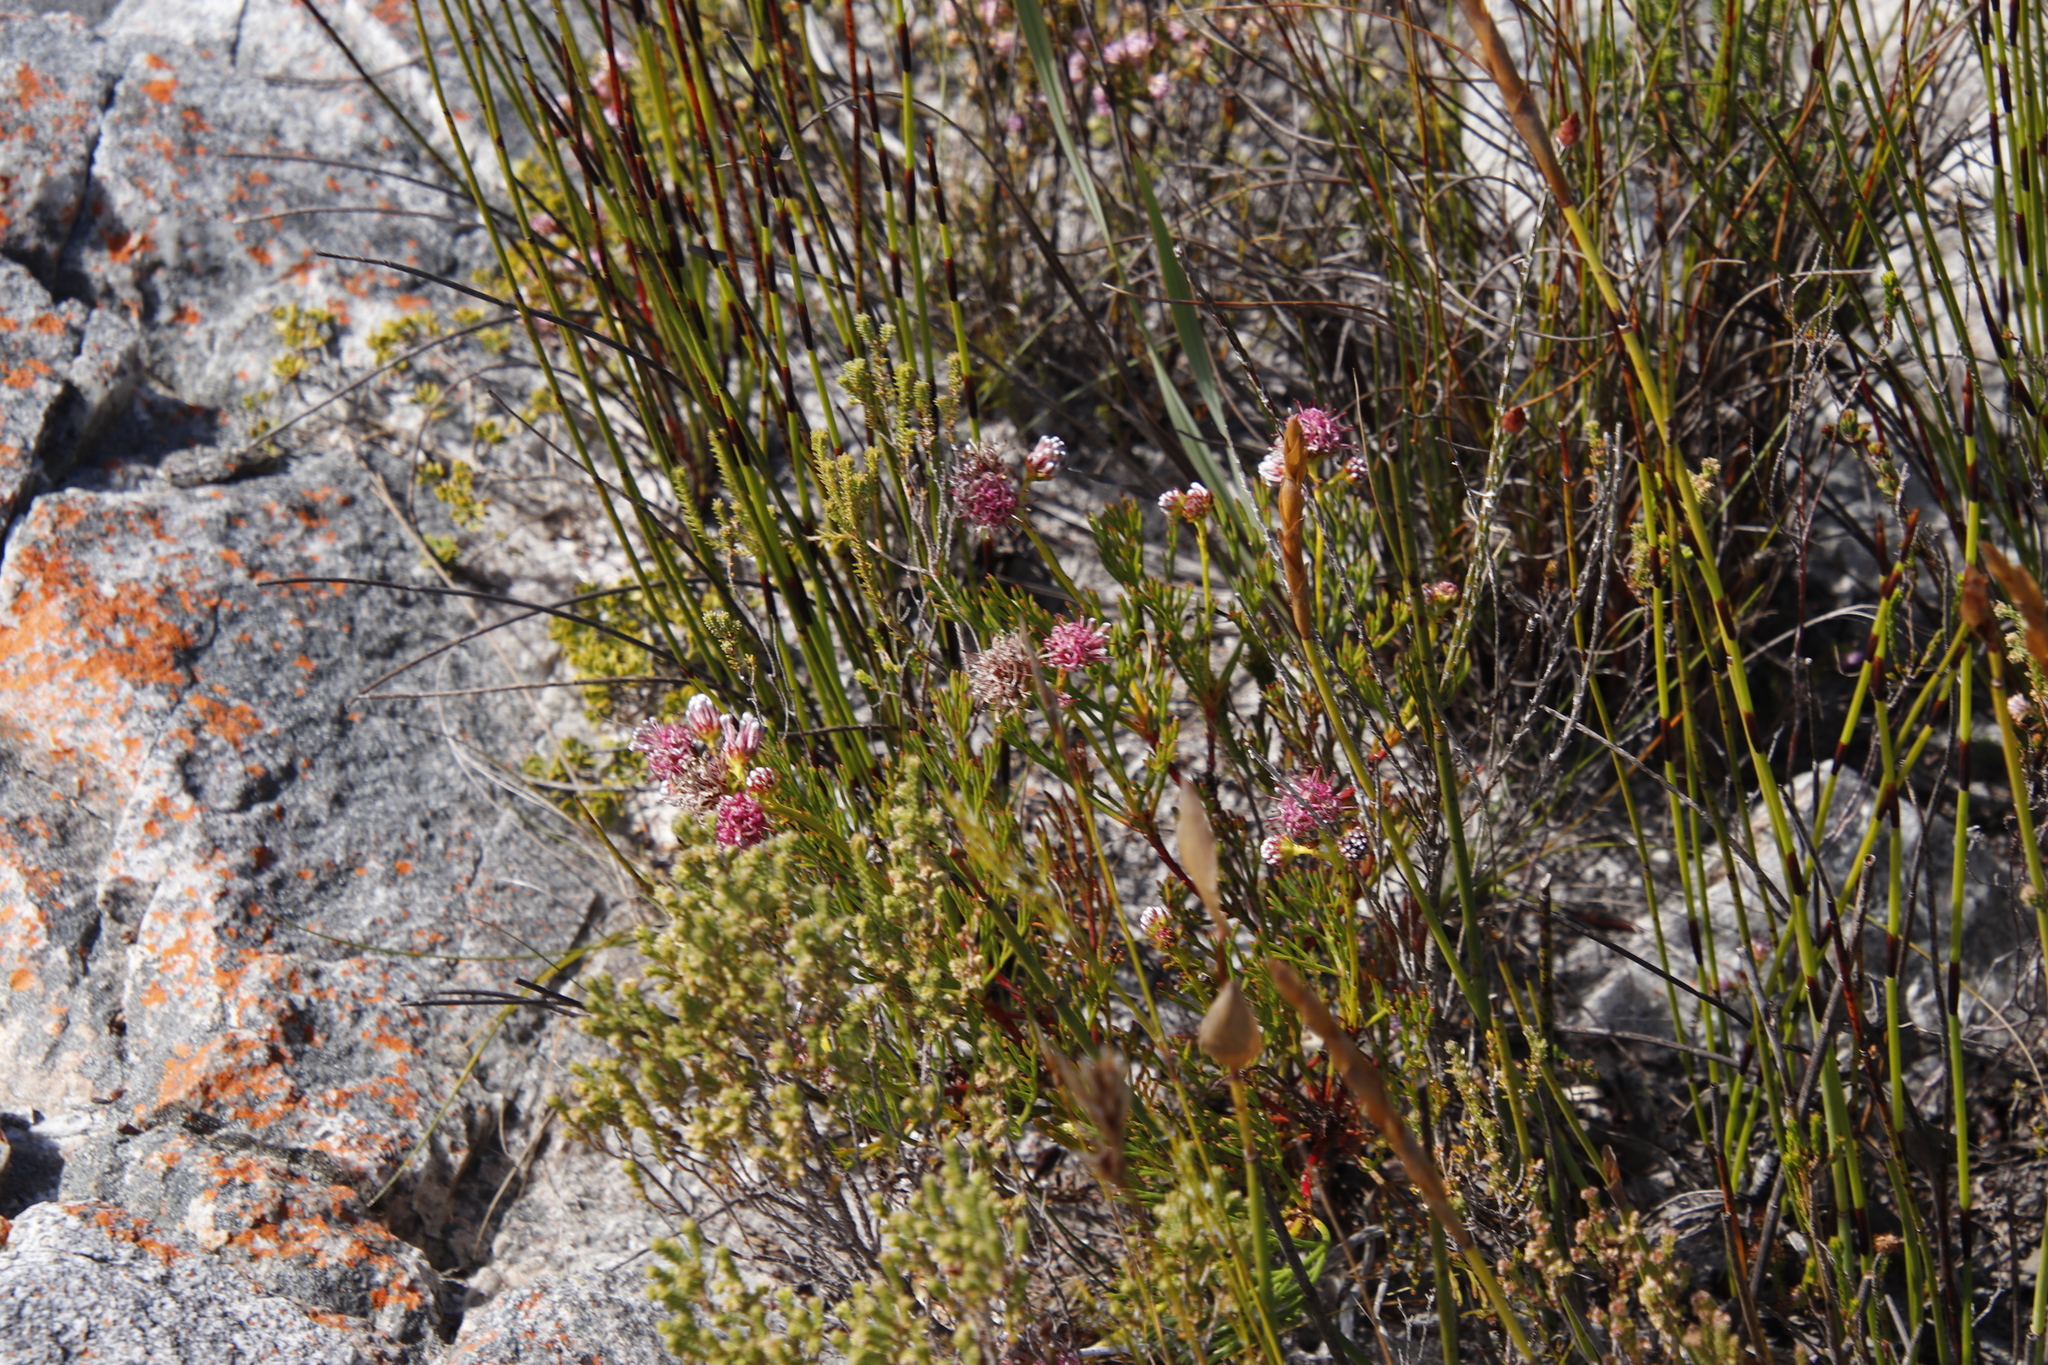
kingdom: Plantae
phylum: Tracheophyta
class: Magnoliopsida
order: Proteales
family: Proteaceae
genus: Serruria
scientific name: Serruria elongata
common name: Long-stalk spiderhead
